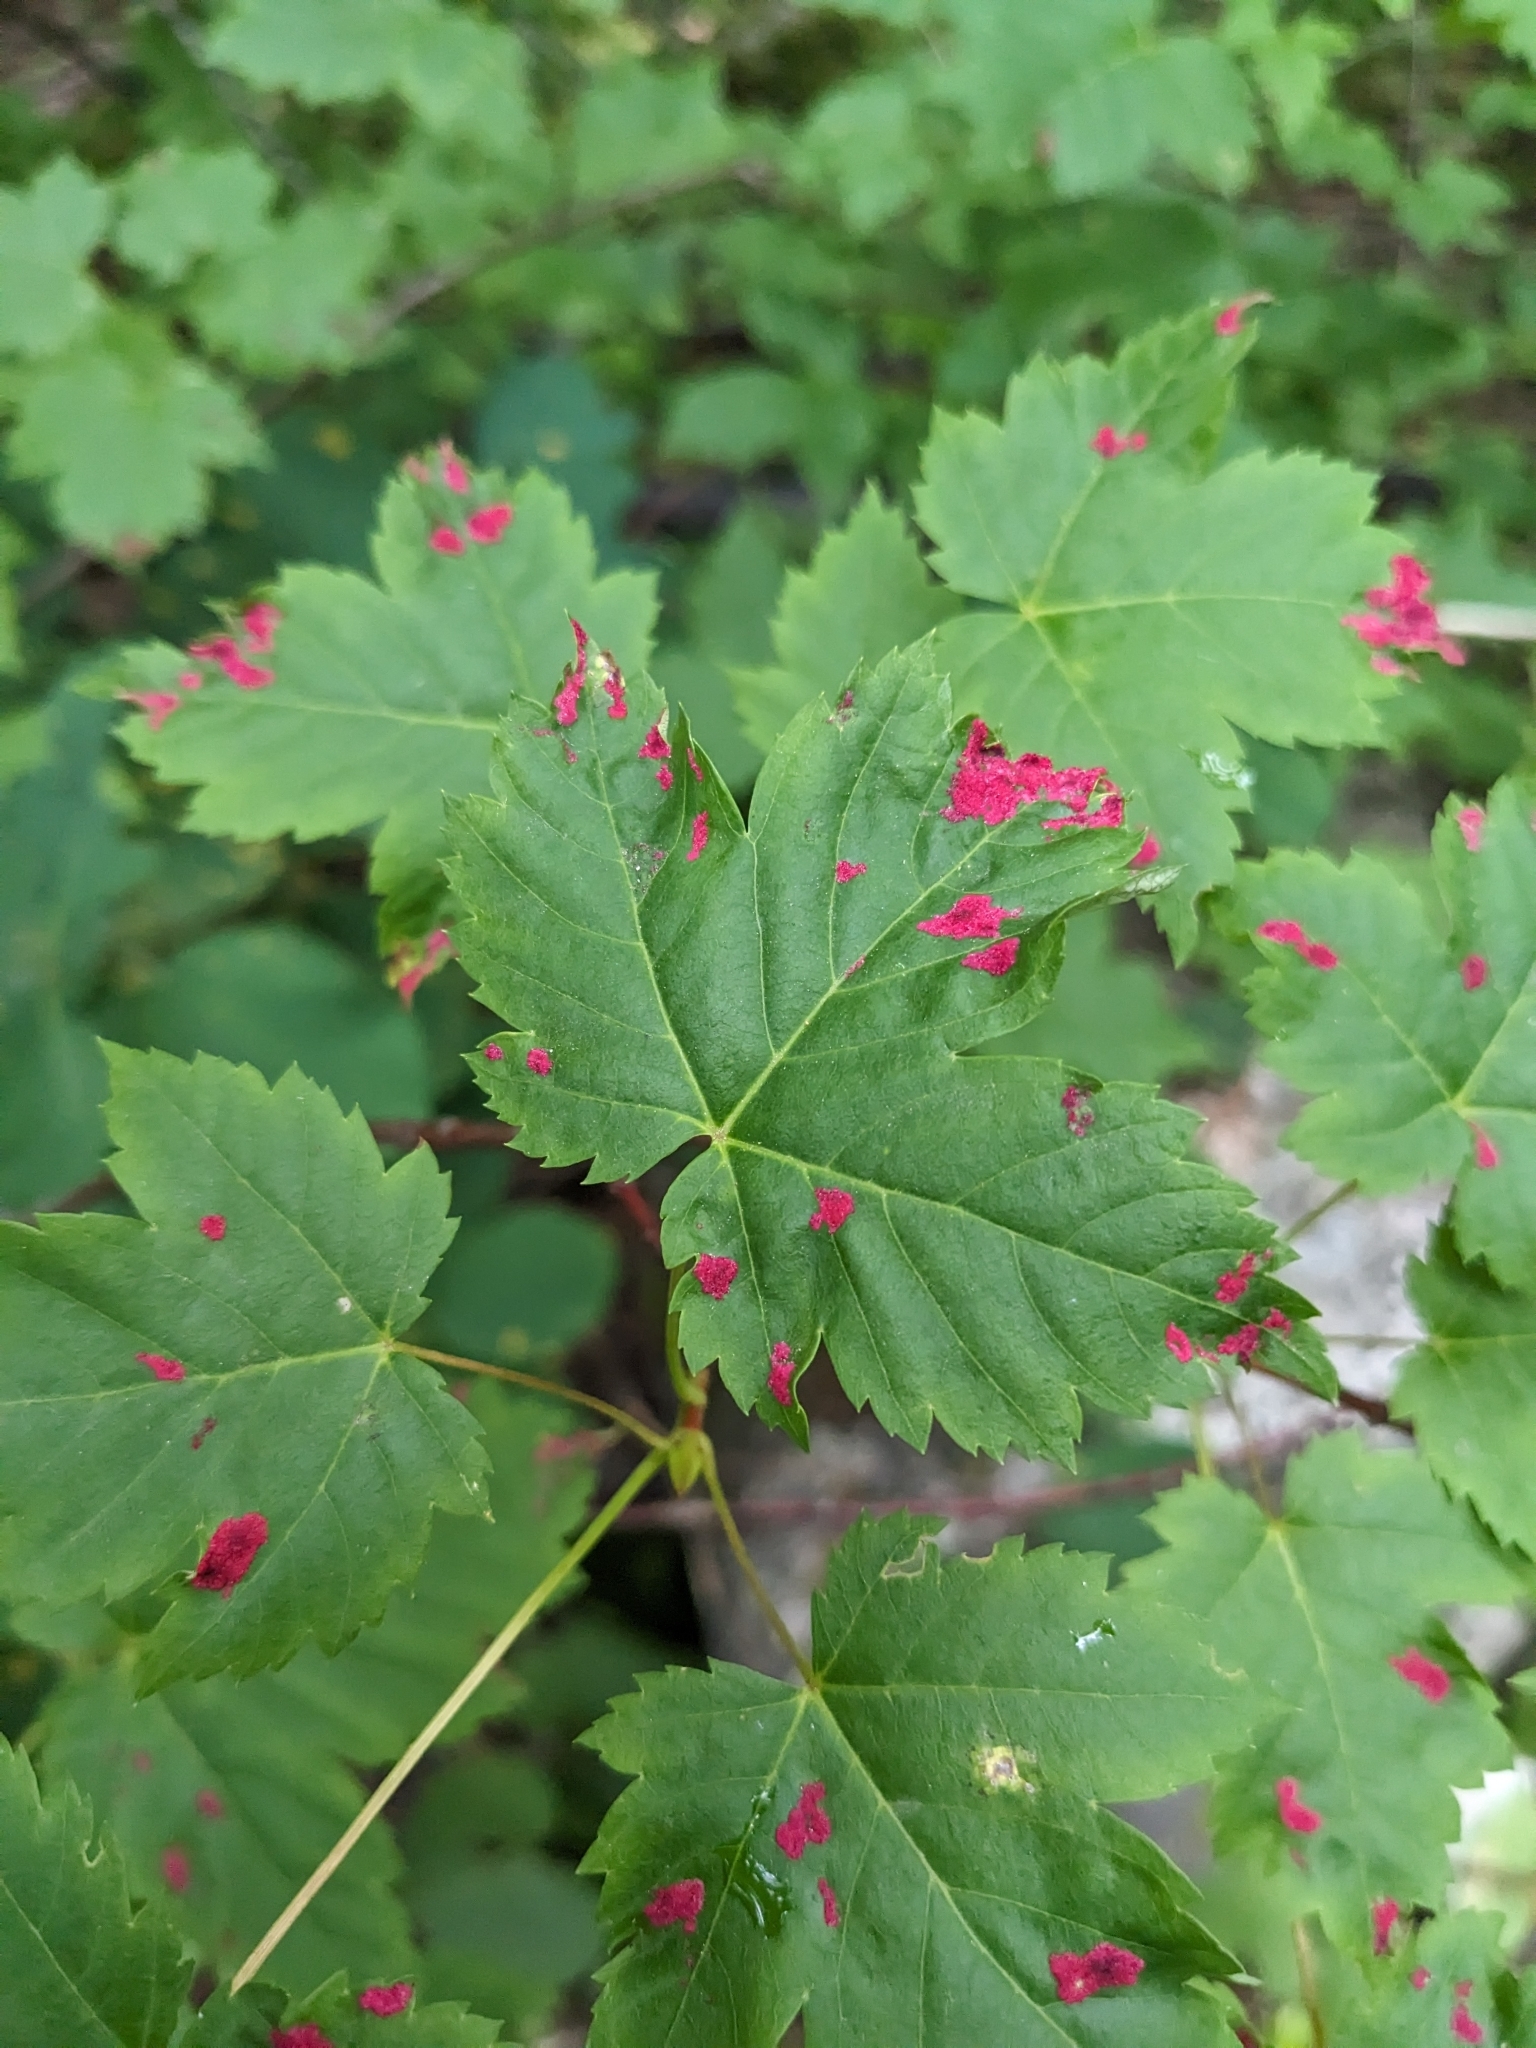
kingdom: Animalia
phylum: Arthropoda
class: Arachnida
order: Trombidiformes
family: Eriophyidae
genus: Aceria
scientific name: Aceria
